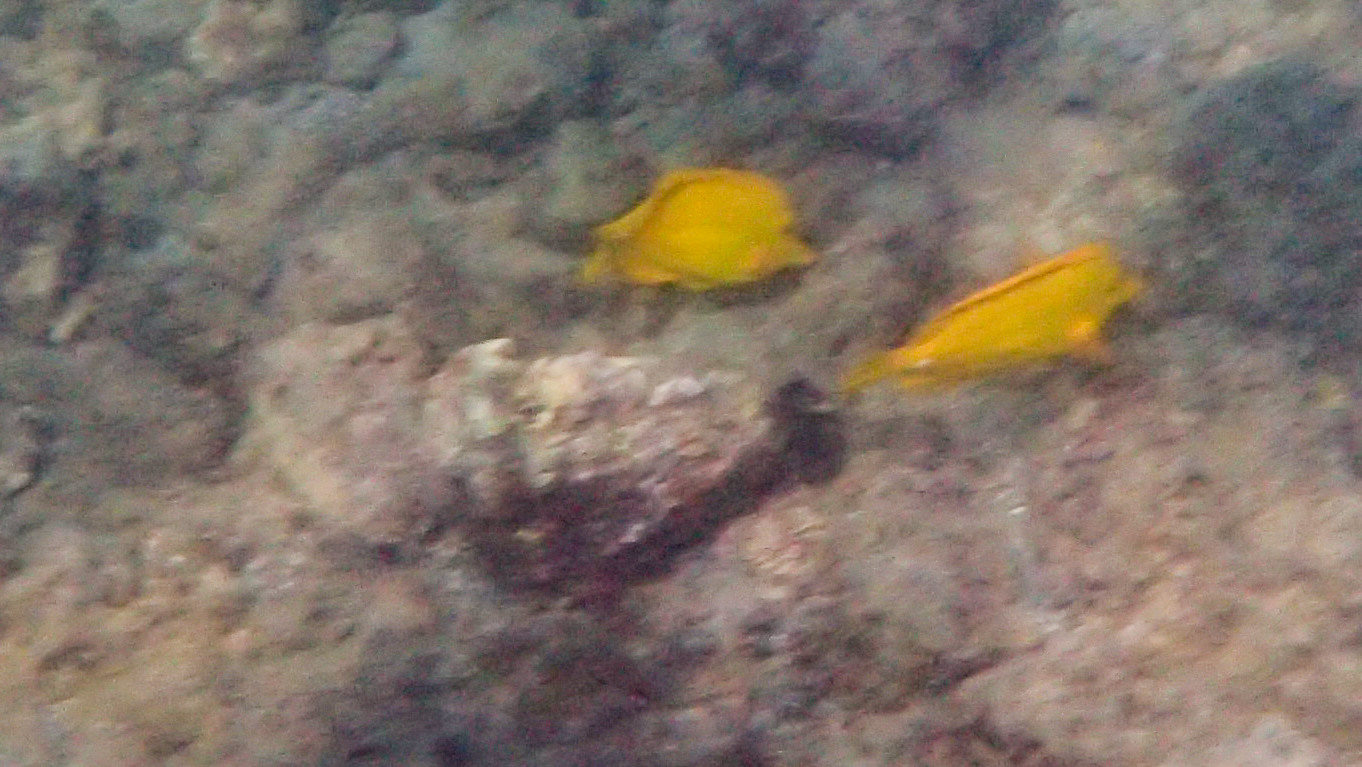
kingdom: Animalia
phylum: Chordata
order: Perciformes
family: Acanthuridae
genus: Zebrasoma
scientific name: Zebrasoma flavescens
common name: Yellow tang
